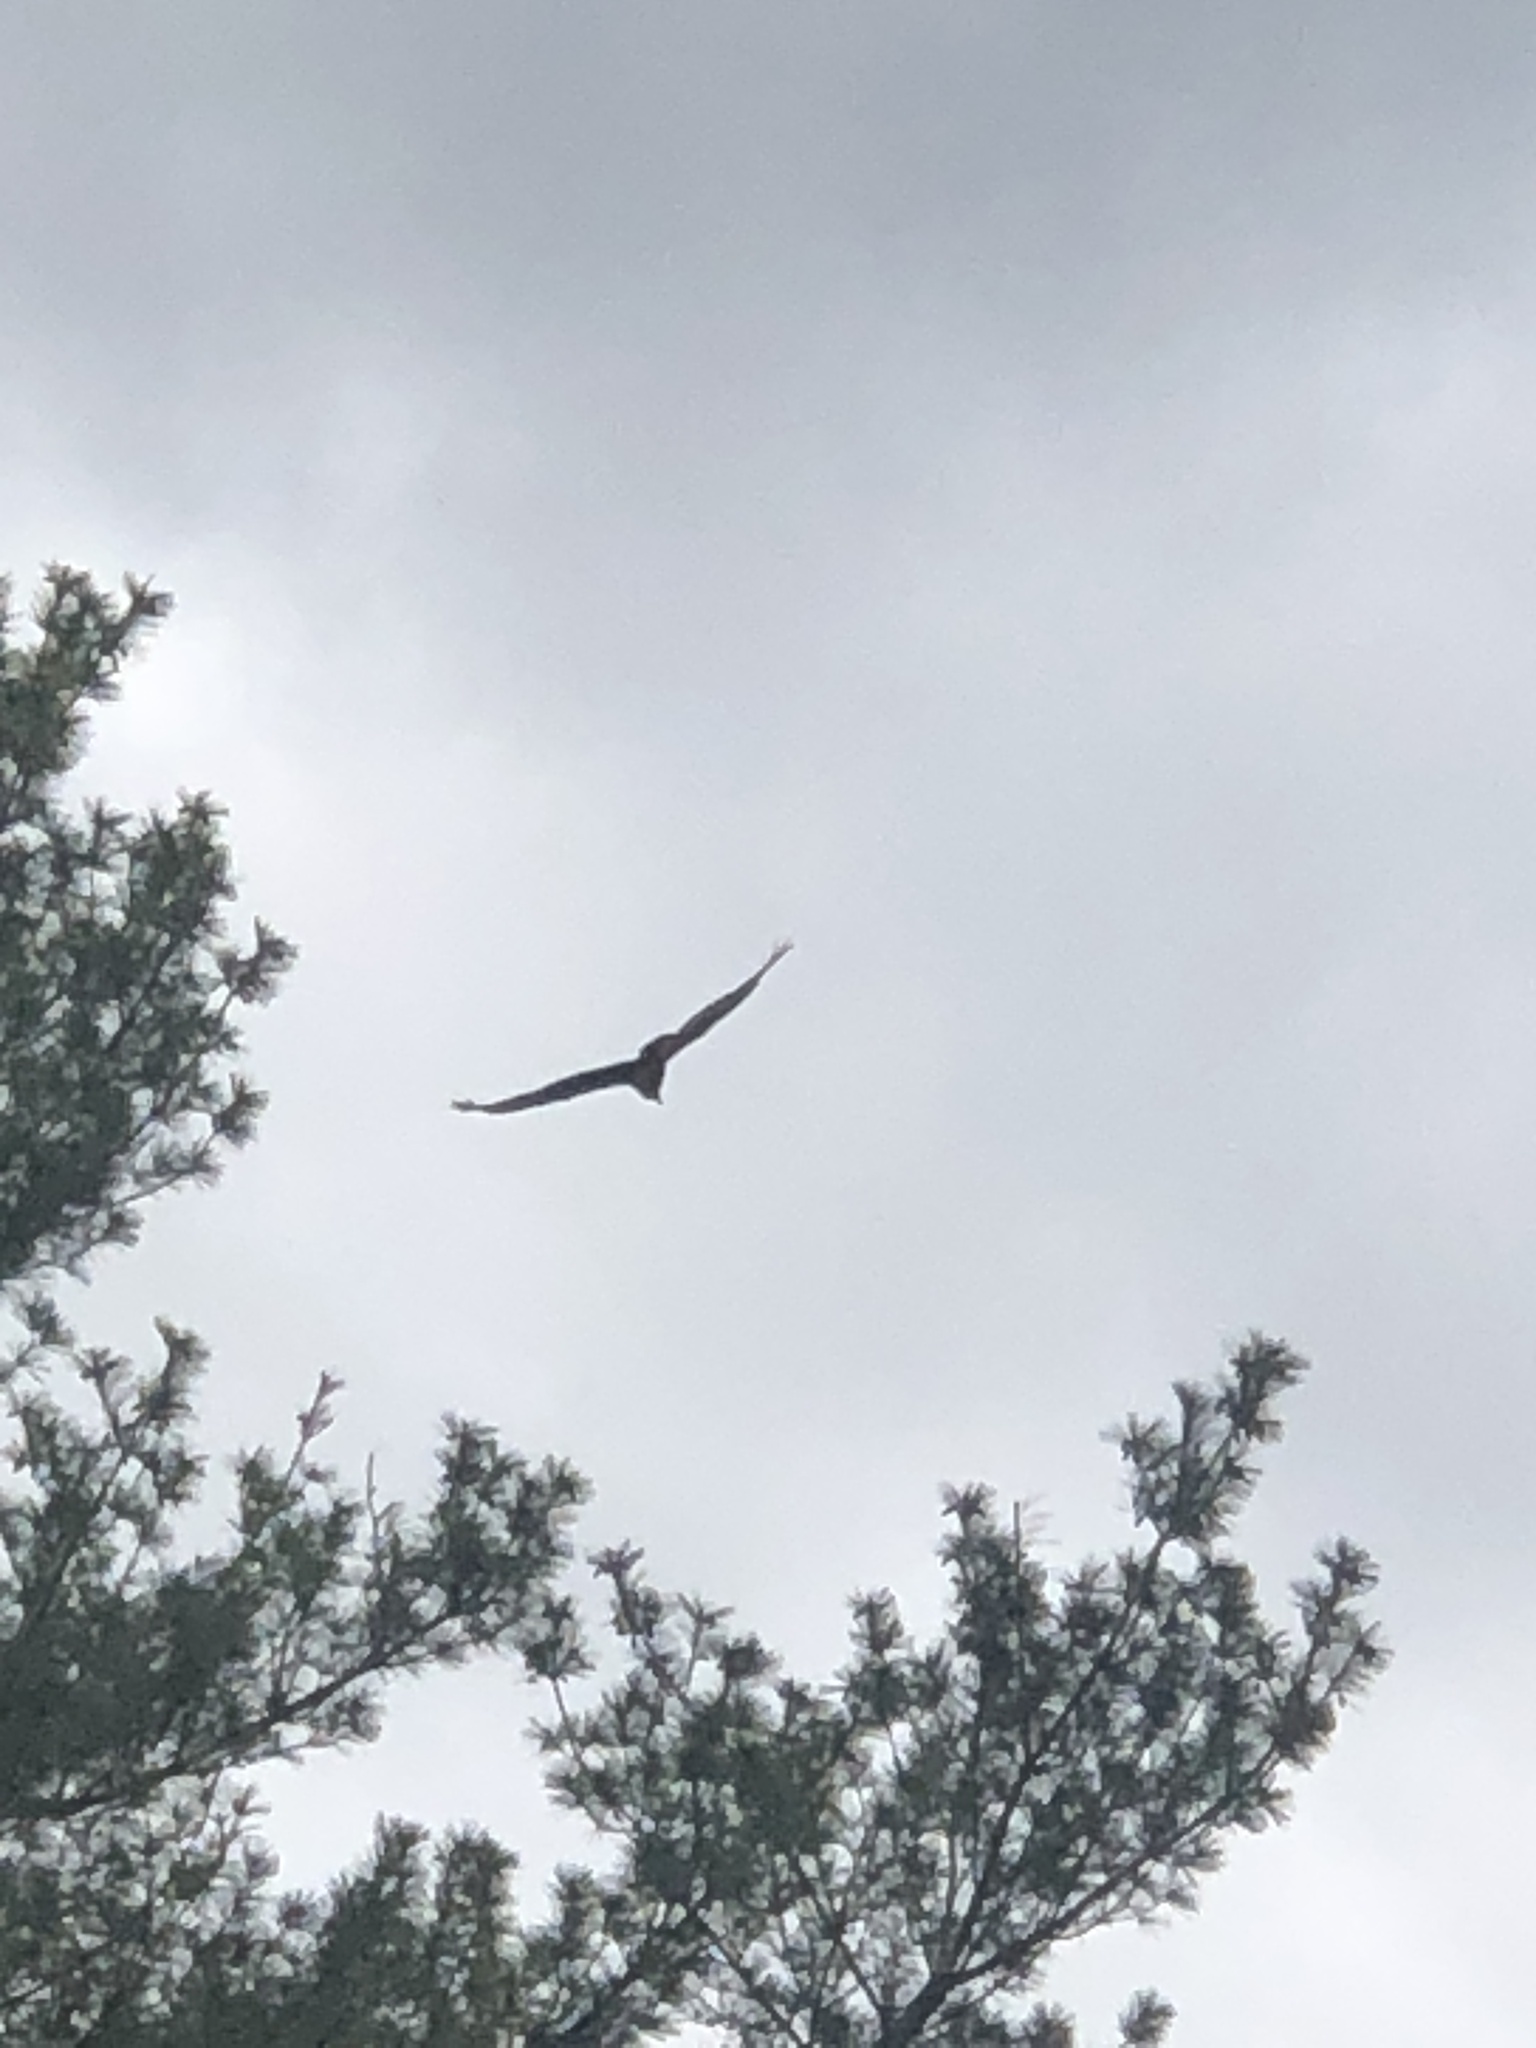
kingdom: Animalia
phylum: Chordata
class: Aves
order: Accipitriformes
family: Cathartidae
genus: Cathartes
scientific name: Cathartes aura
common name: Turkey vulture
